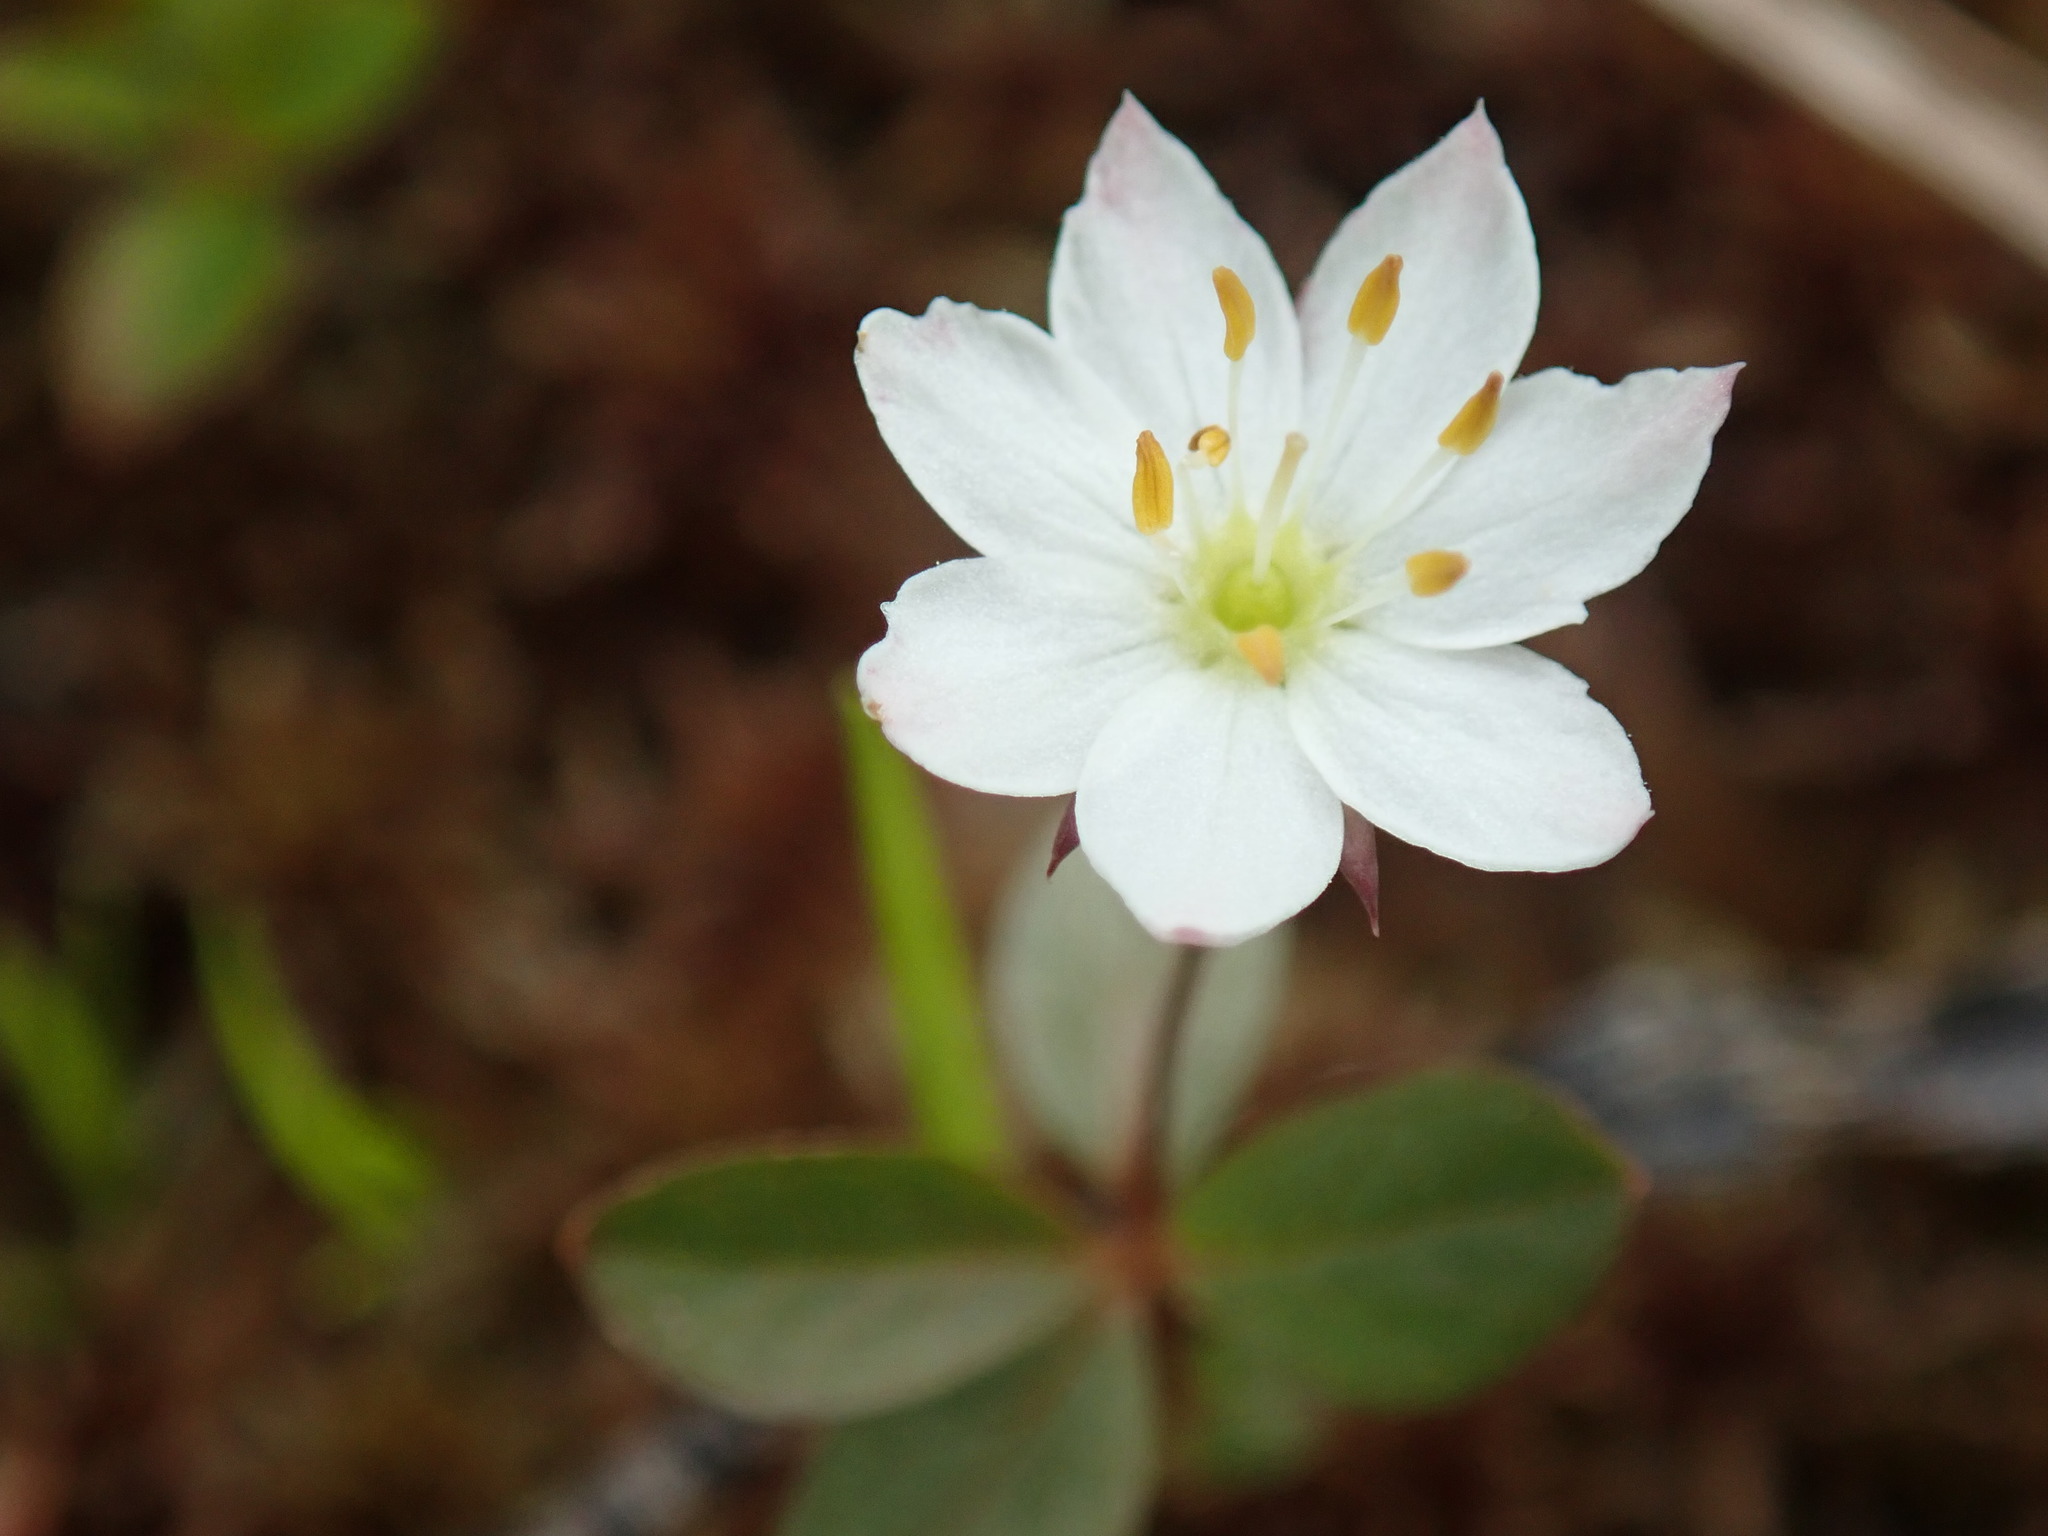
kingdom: Plantae
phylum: Tracheophyta
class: Magnoliopsida
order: Ericales
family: Primulaceae
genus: Lysimachia
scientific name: Lysimachia europaea
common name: Arctic starflower
